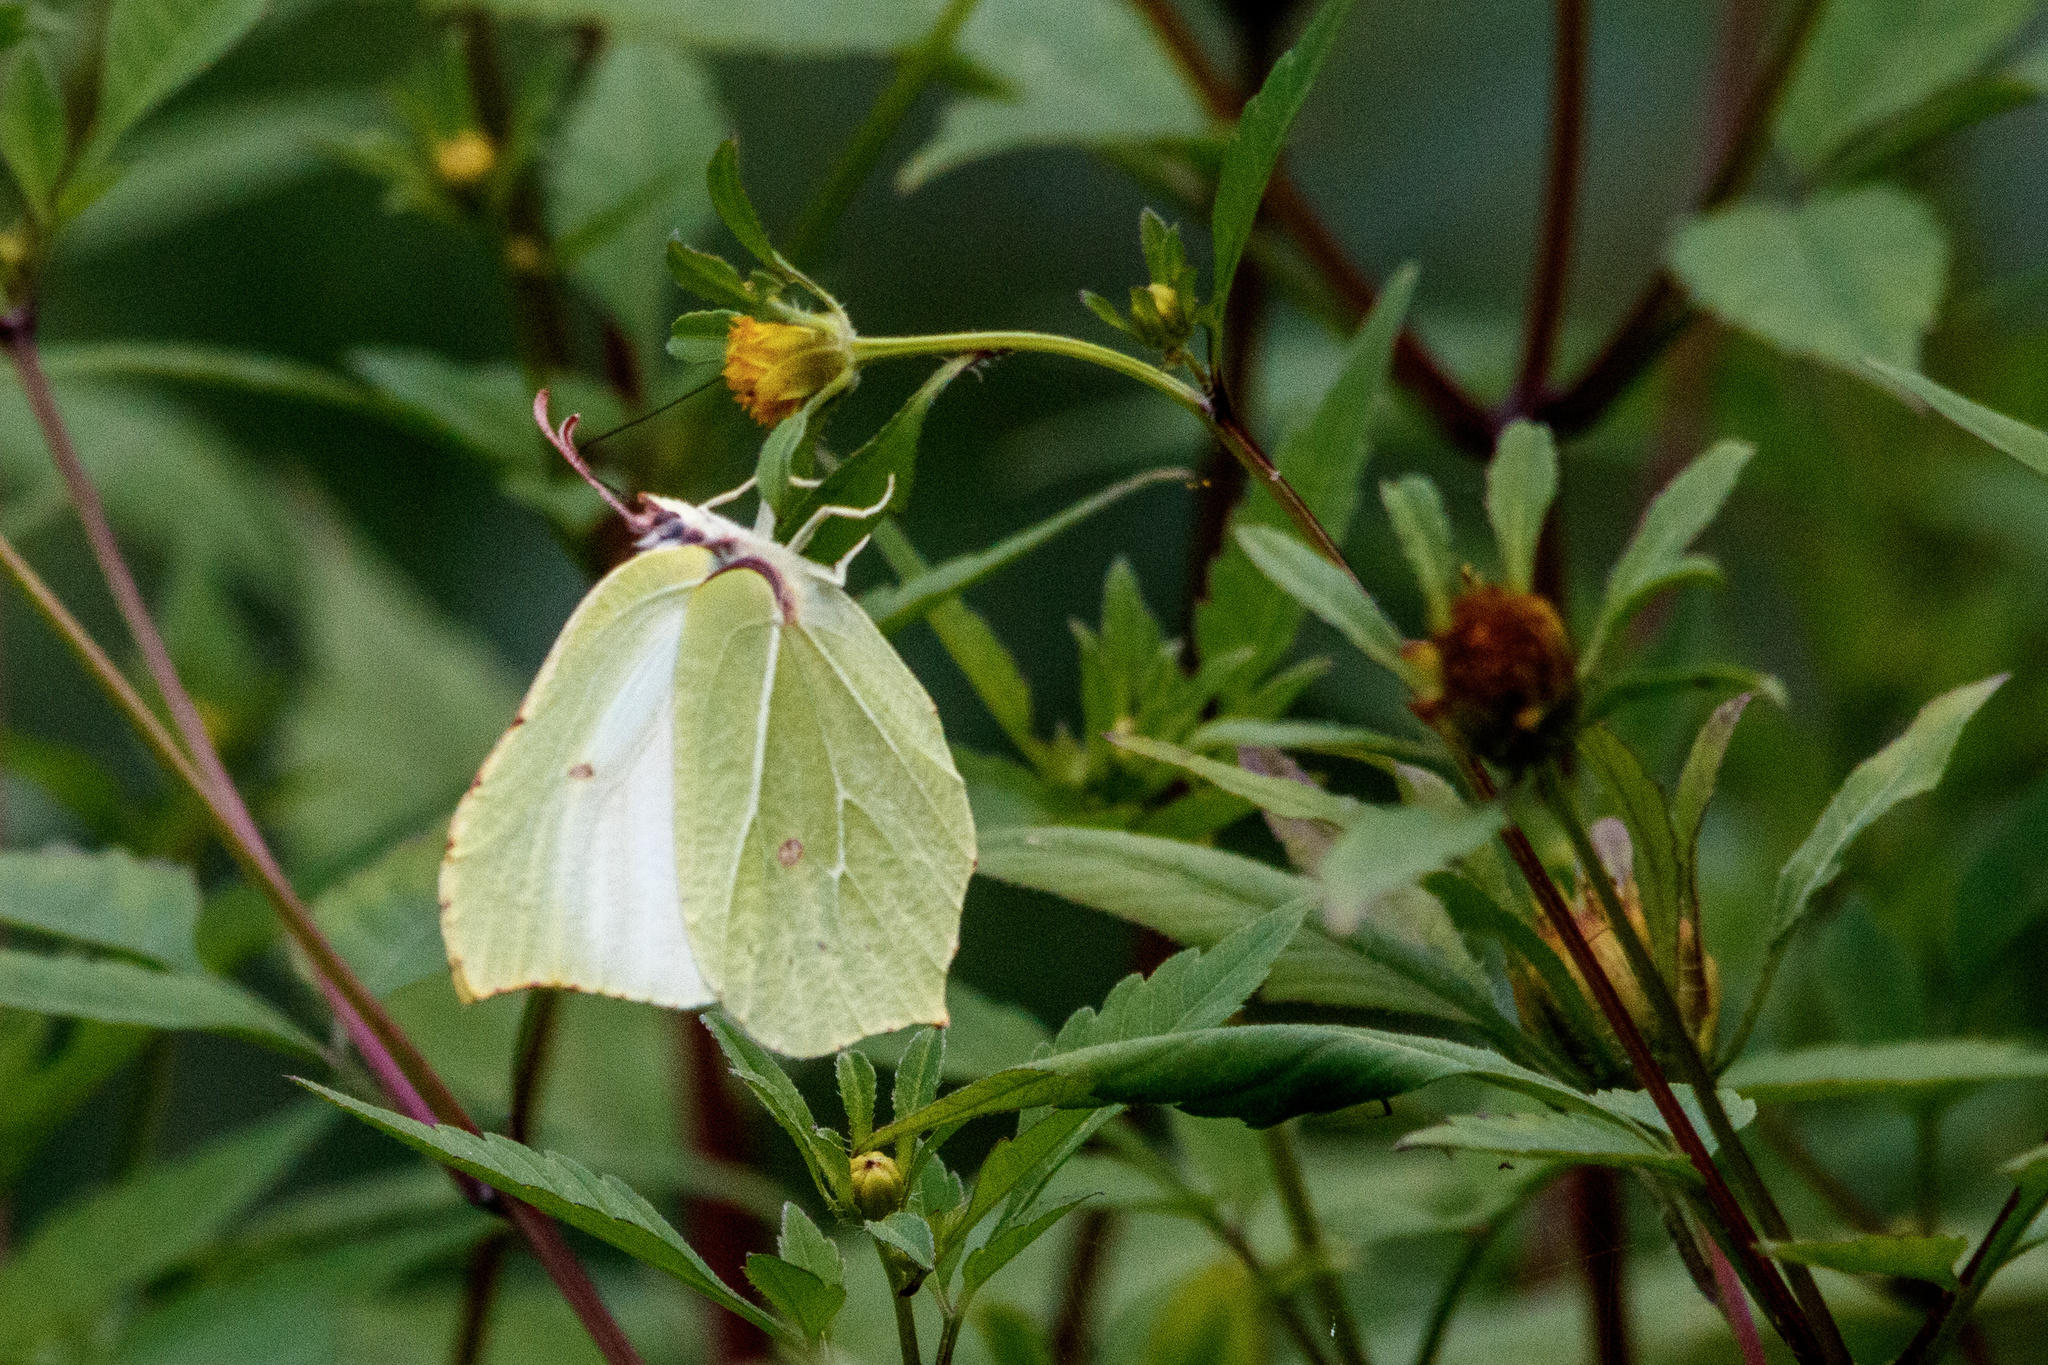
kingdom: Animalia
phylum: Arthropoda
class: Insecta
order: Lepidoptera
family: Pieridae
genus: Gonepteryx
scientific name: Gonepteryx rhamni
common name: Brimstone
